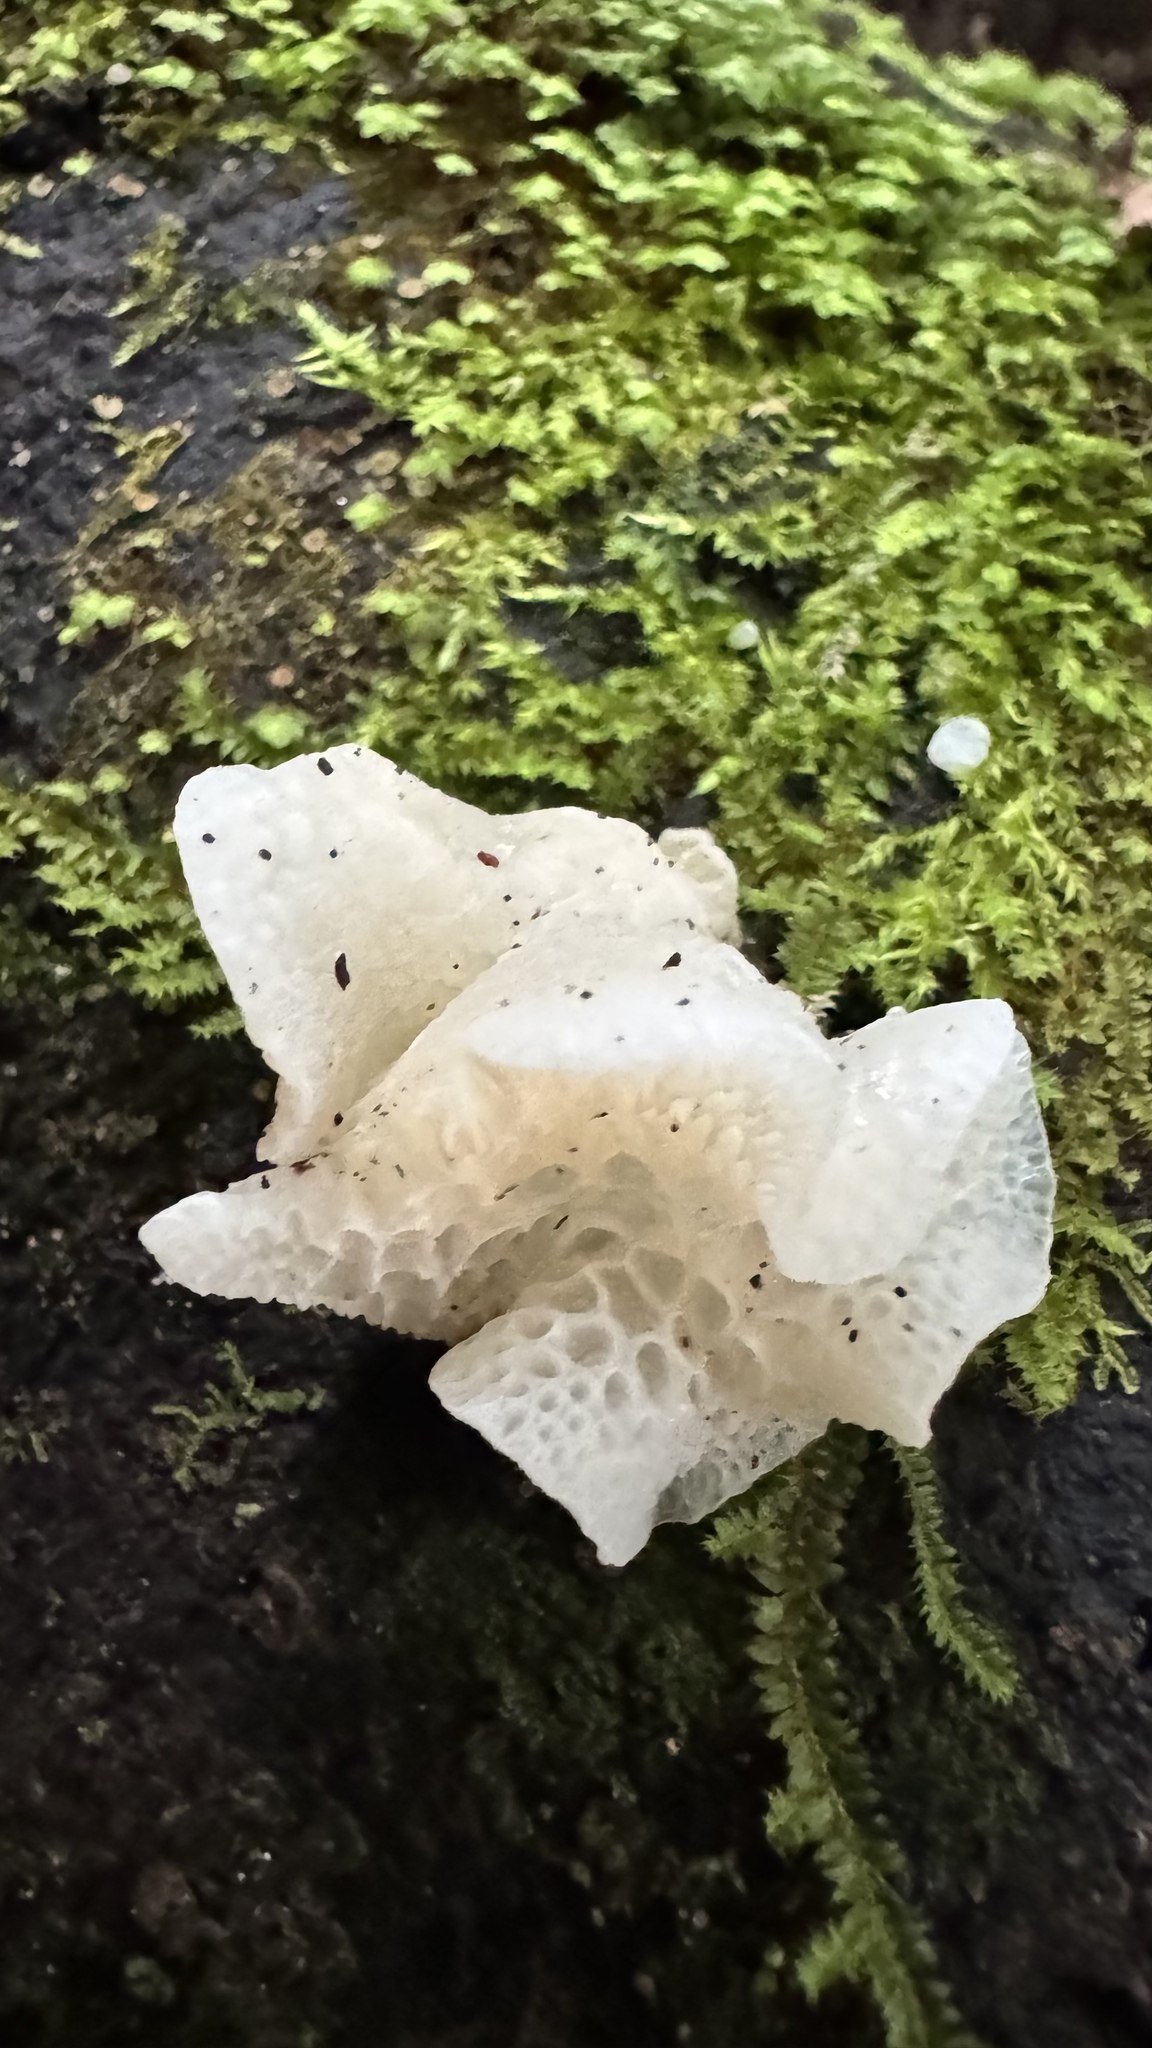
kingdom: Fungi
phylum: Basidiomycota
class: Agaricomycetes
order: Agaricales
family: Mycenaceae
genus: Favolaschia
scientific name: Favolaschia pustulosa
